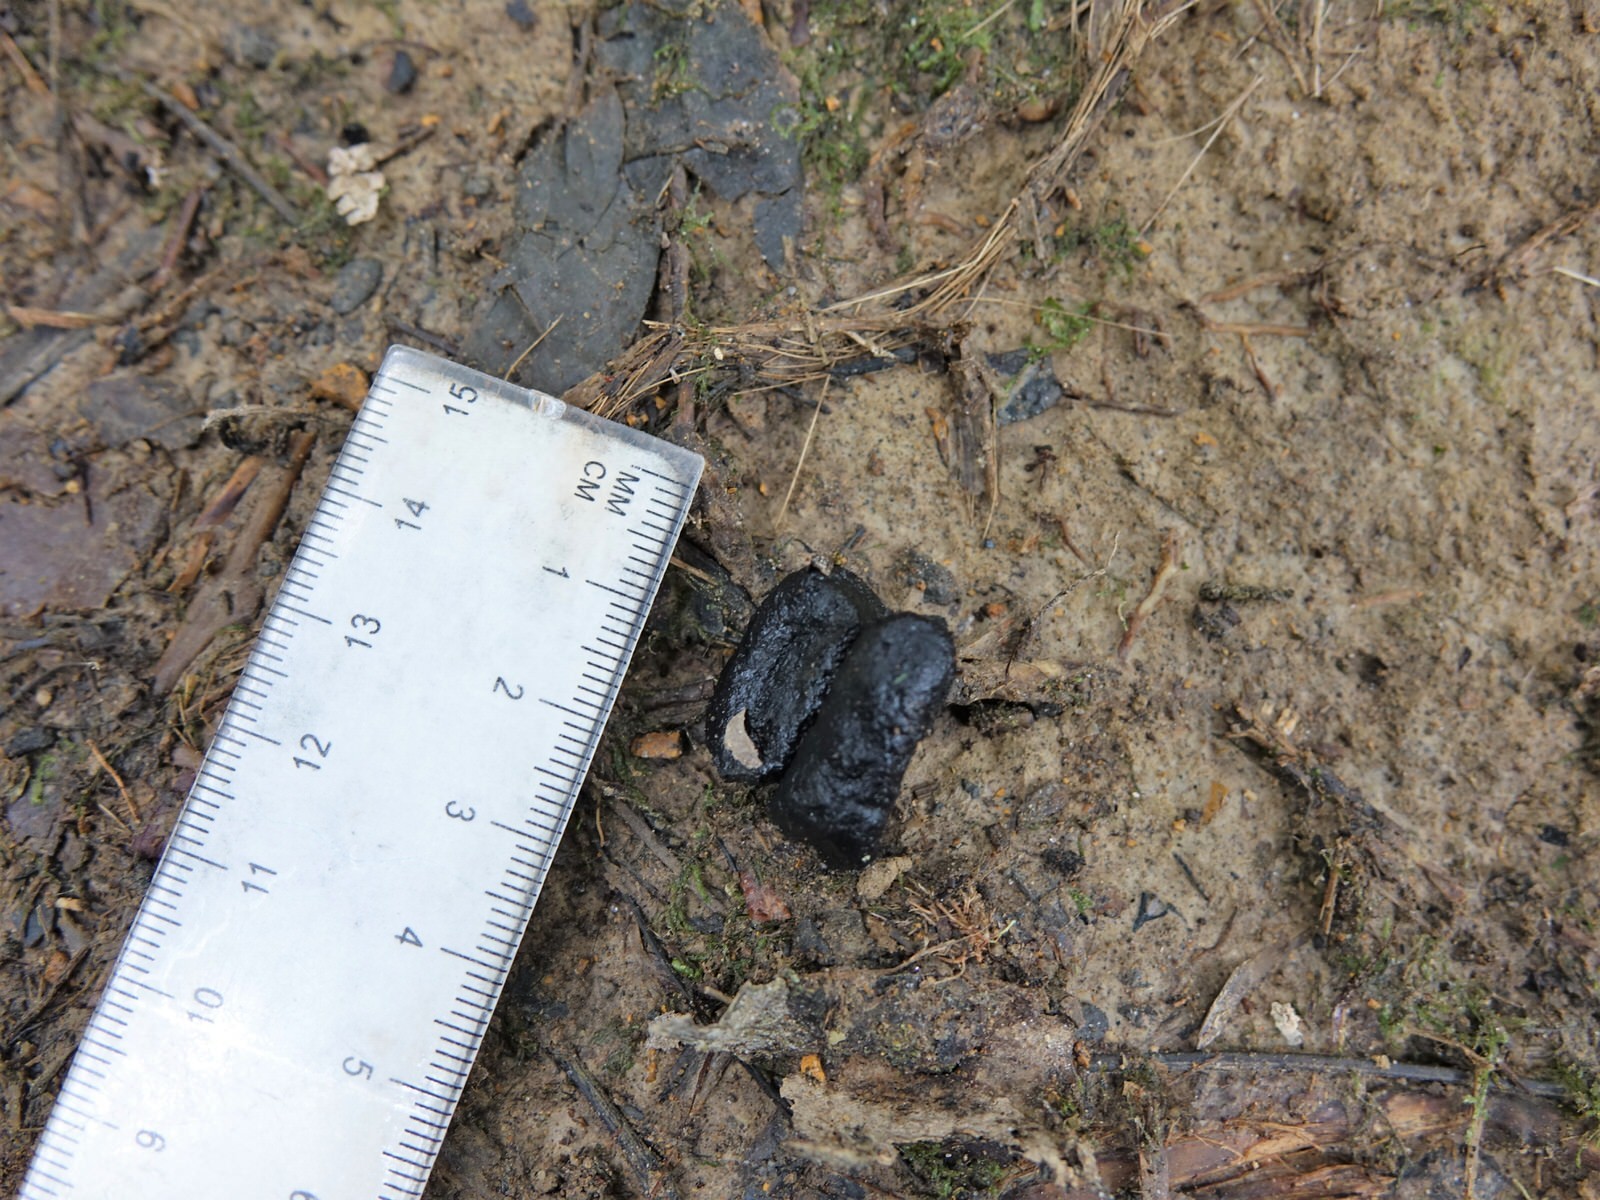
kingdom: Animalia
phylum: Chordata
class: Mammalia
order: Diprotodontia
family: Phalangeridae
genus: Trichosurus
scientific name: Trichosurus vulpecula
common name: Common brushtail
